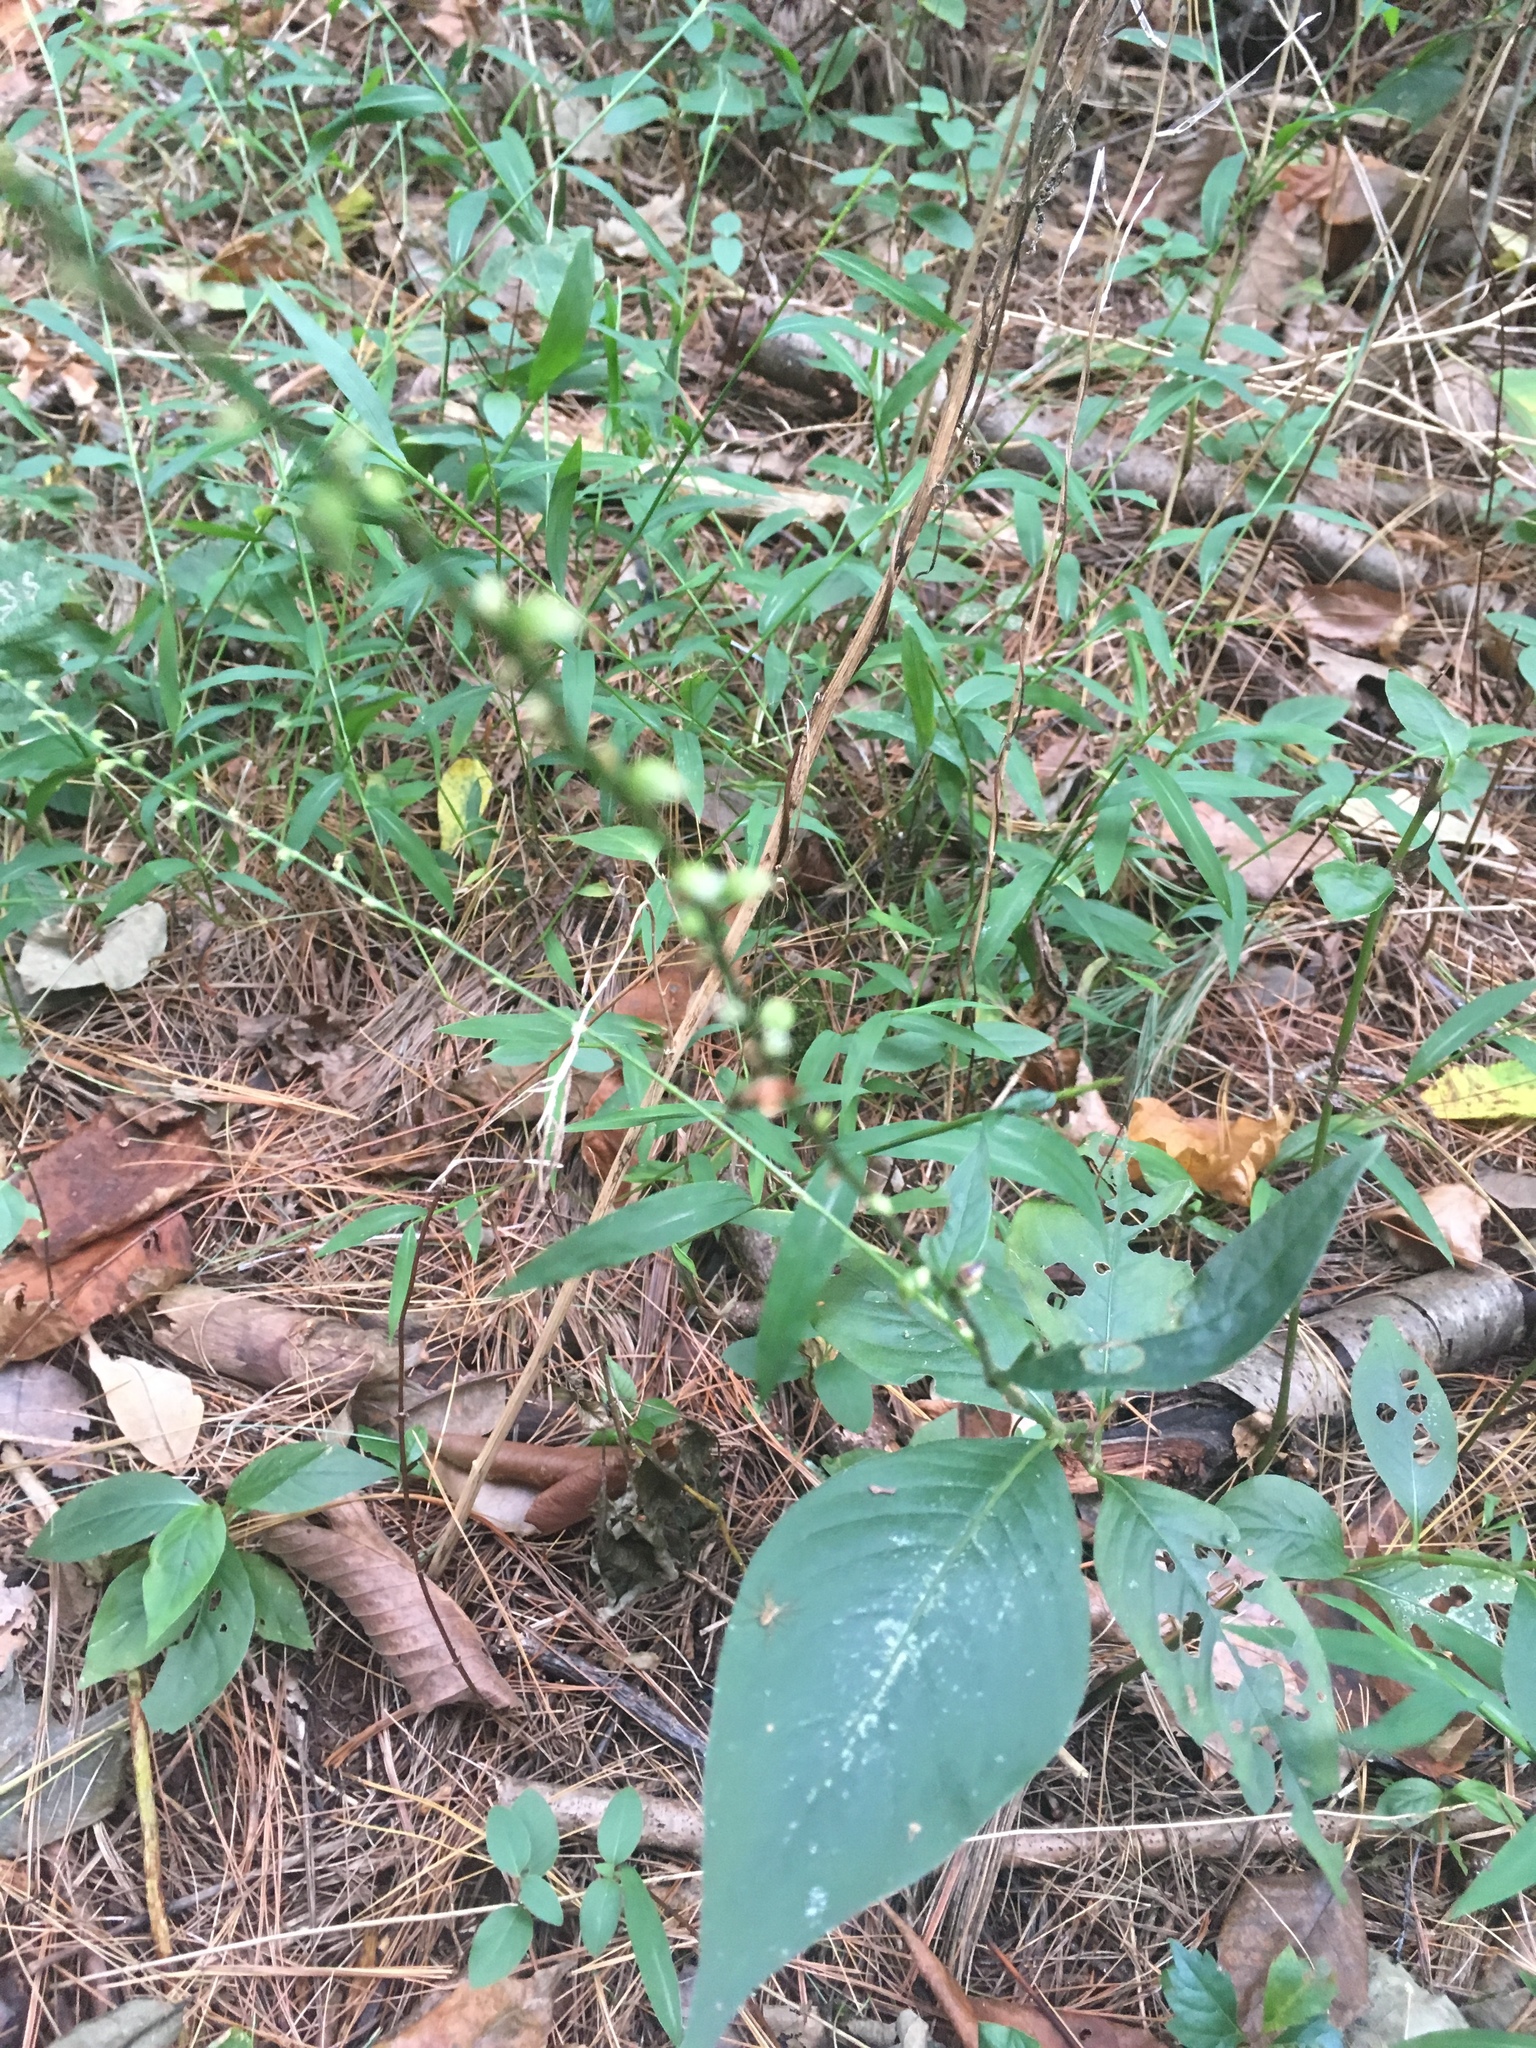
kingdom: Plantae
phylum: Tracheophyta
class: Magnoliopsida
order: Caryophyllales
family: Polygonaceae
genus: Persicaria
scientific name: Persicaria virginiana
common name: Jumpseed
